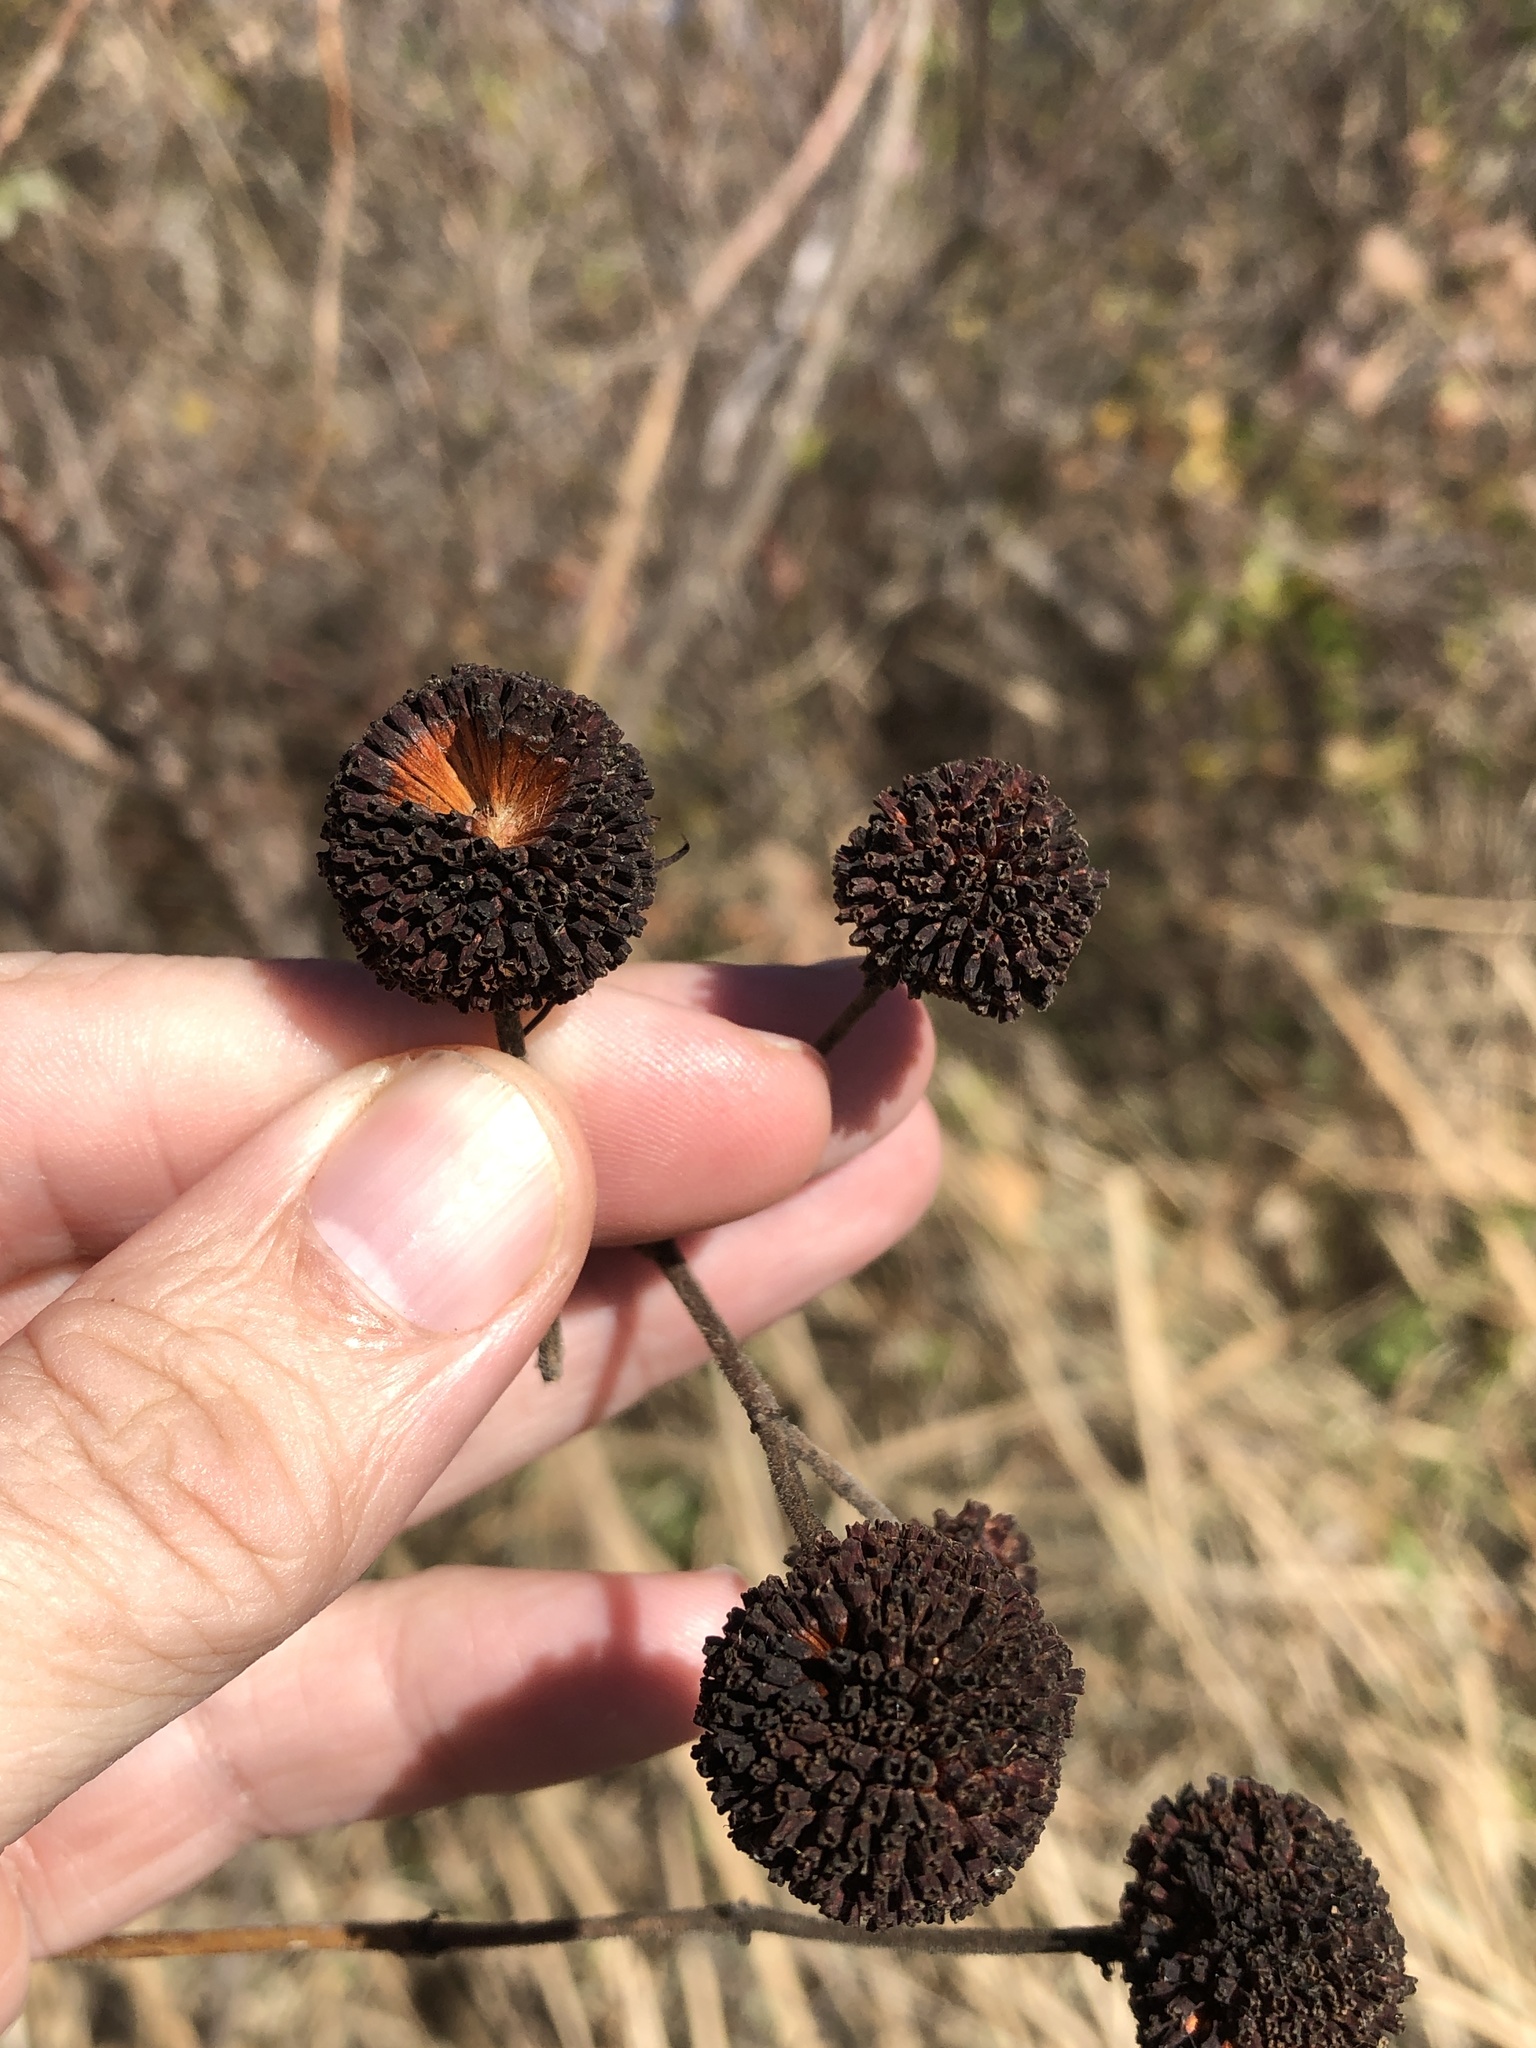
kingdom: Plantae
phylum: Tracheophyta
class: Magnoliopsida
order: Gentianales
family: Rubiaceae
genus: Cephalanthus
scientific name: Cephalanthus occidentalis
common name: Button-willow
